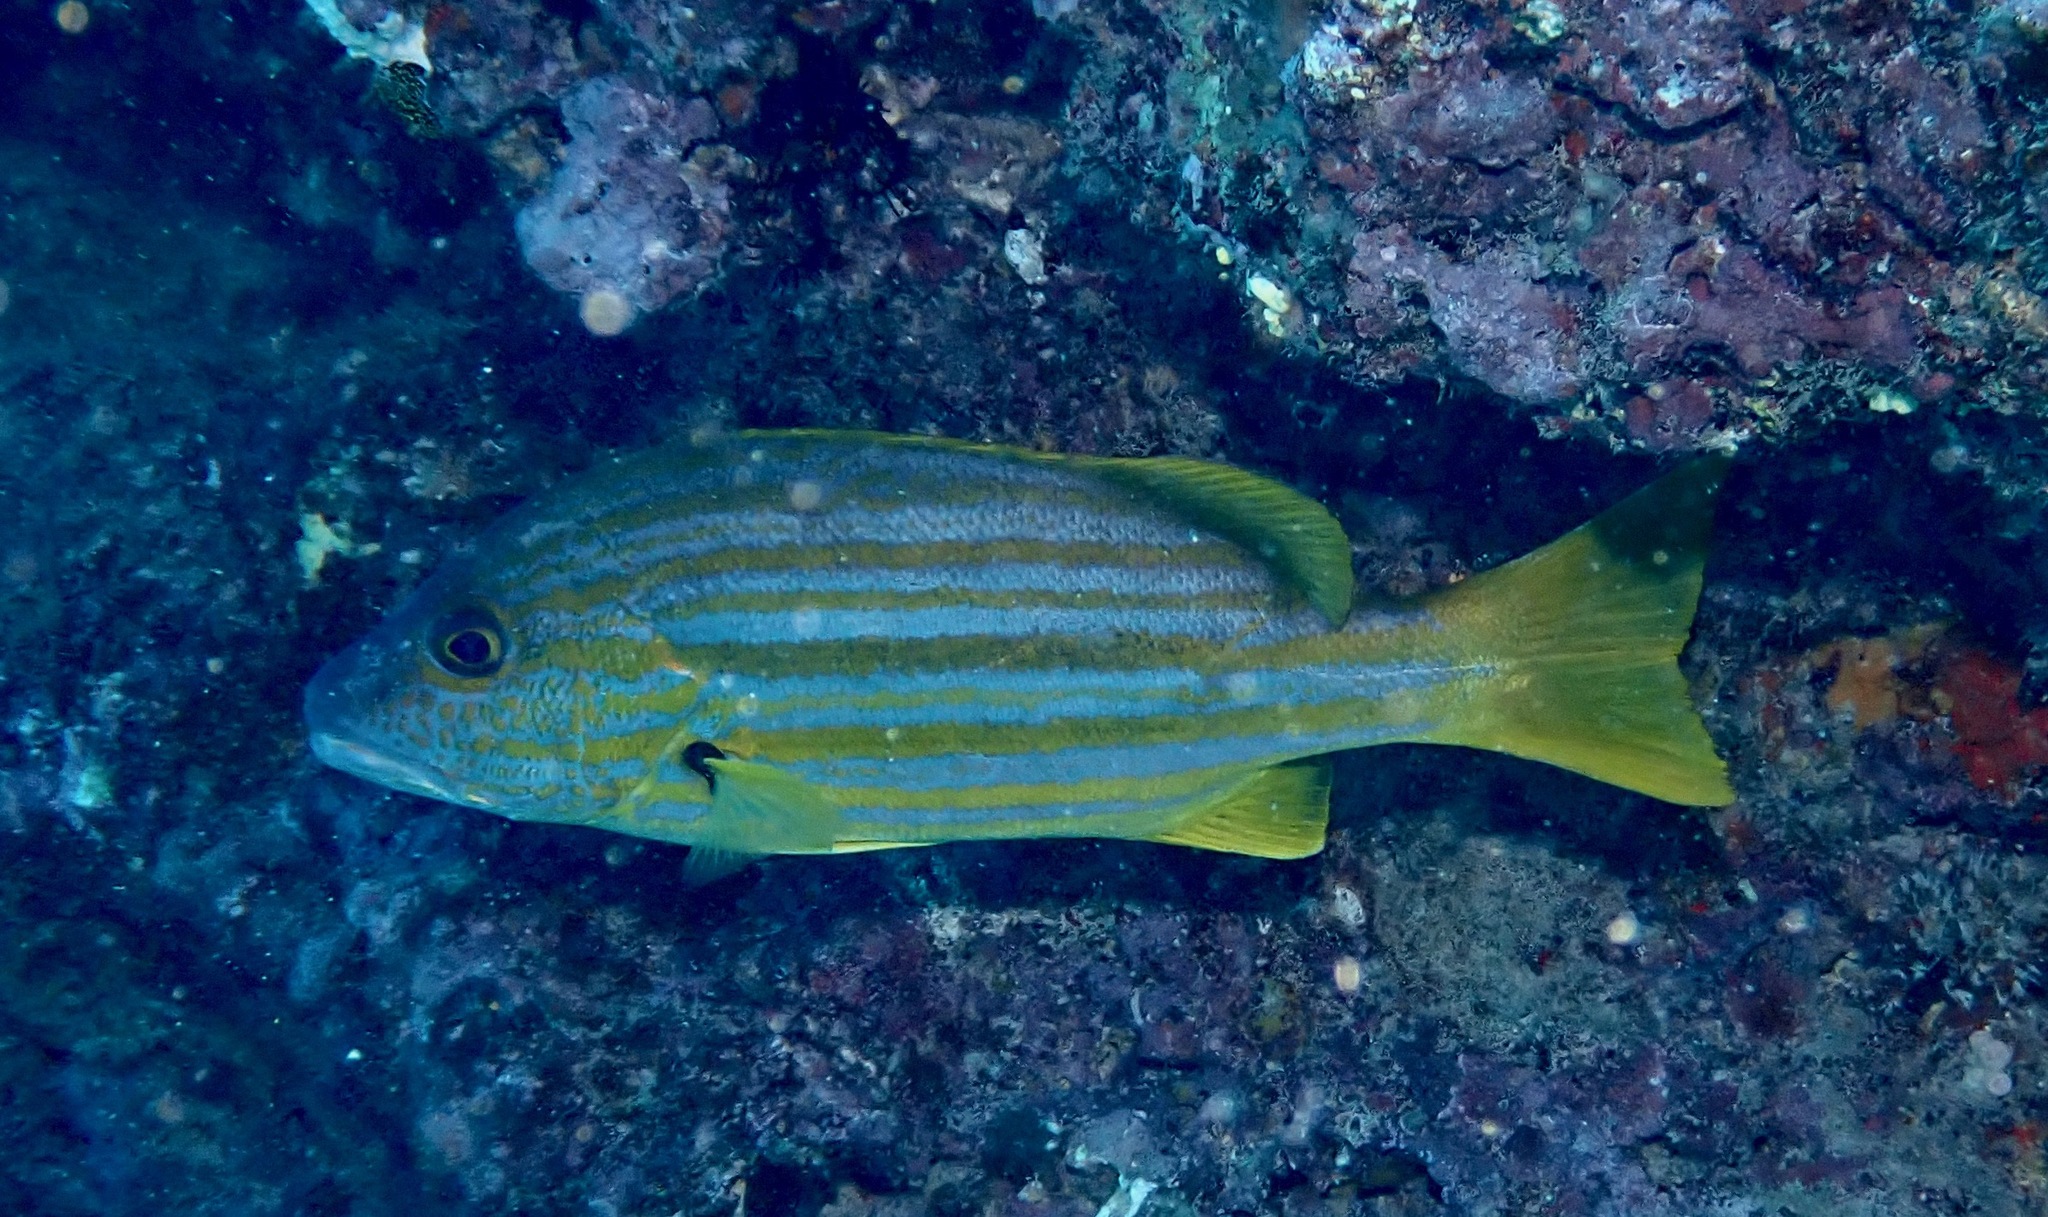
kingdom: Animalia
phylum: Chordata
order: Perciformes
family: Lutjanidae
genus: Lutjanus
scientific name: Lutjanus carponotatus
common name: Spanish flag
